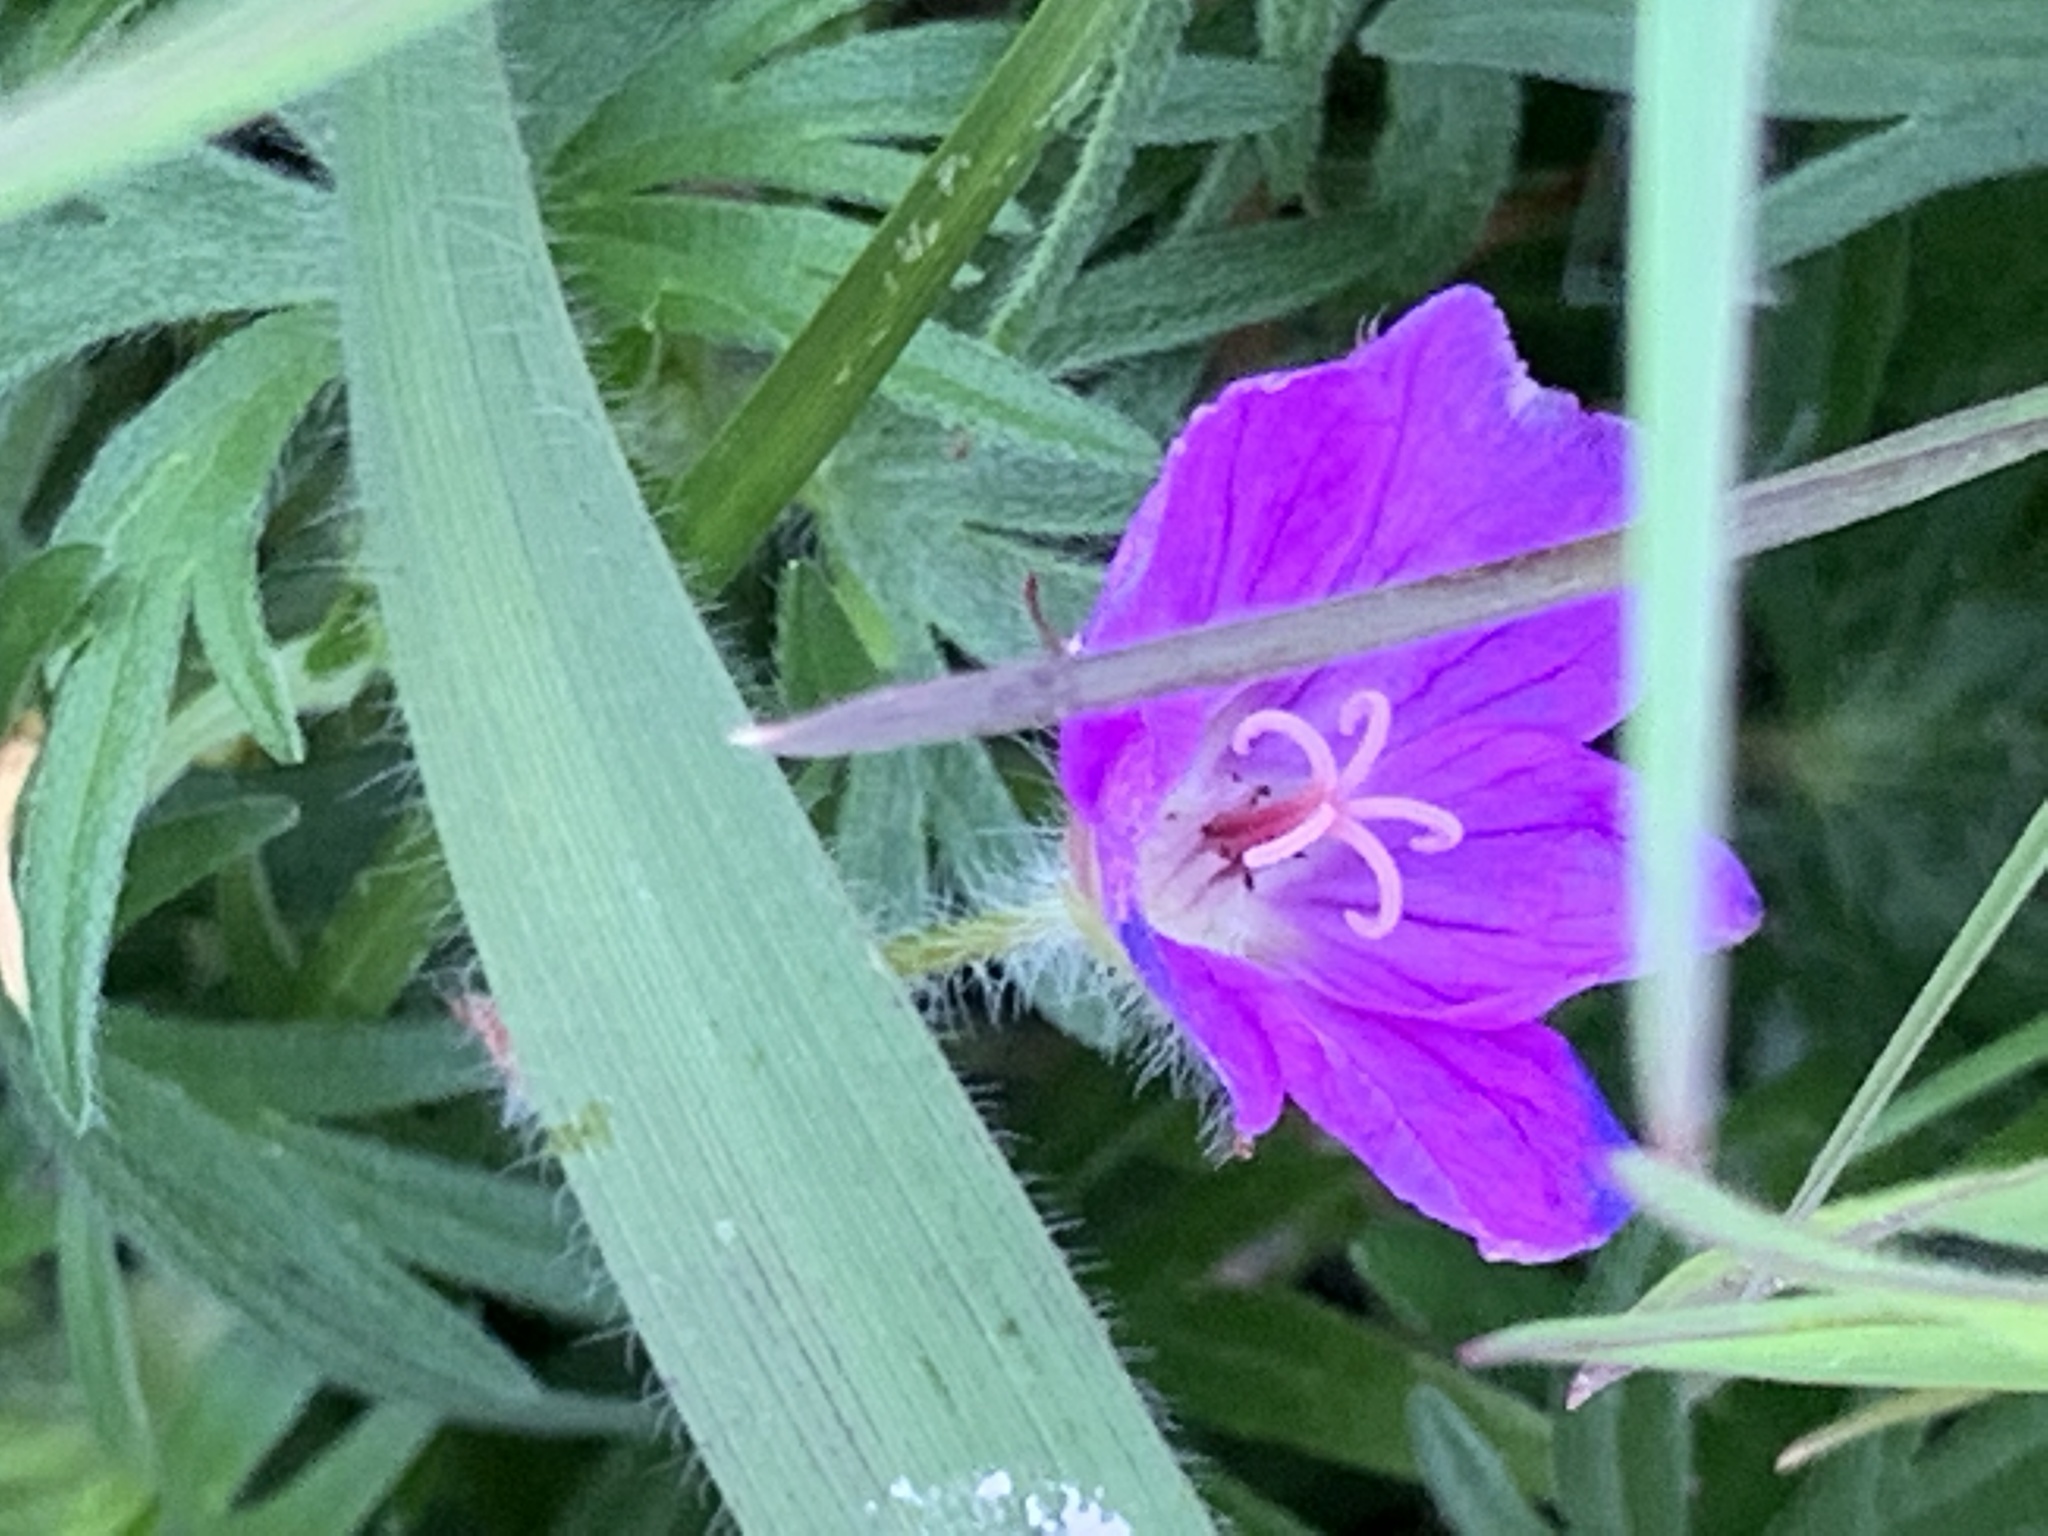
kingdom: Plantae
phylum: Tracheophyta
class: Magnoliopsida
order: Geraniales
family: Geraniaceae
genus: Geranium
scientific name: Geranium sanguineum
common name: Bloody crane's-bill
